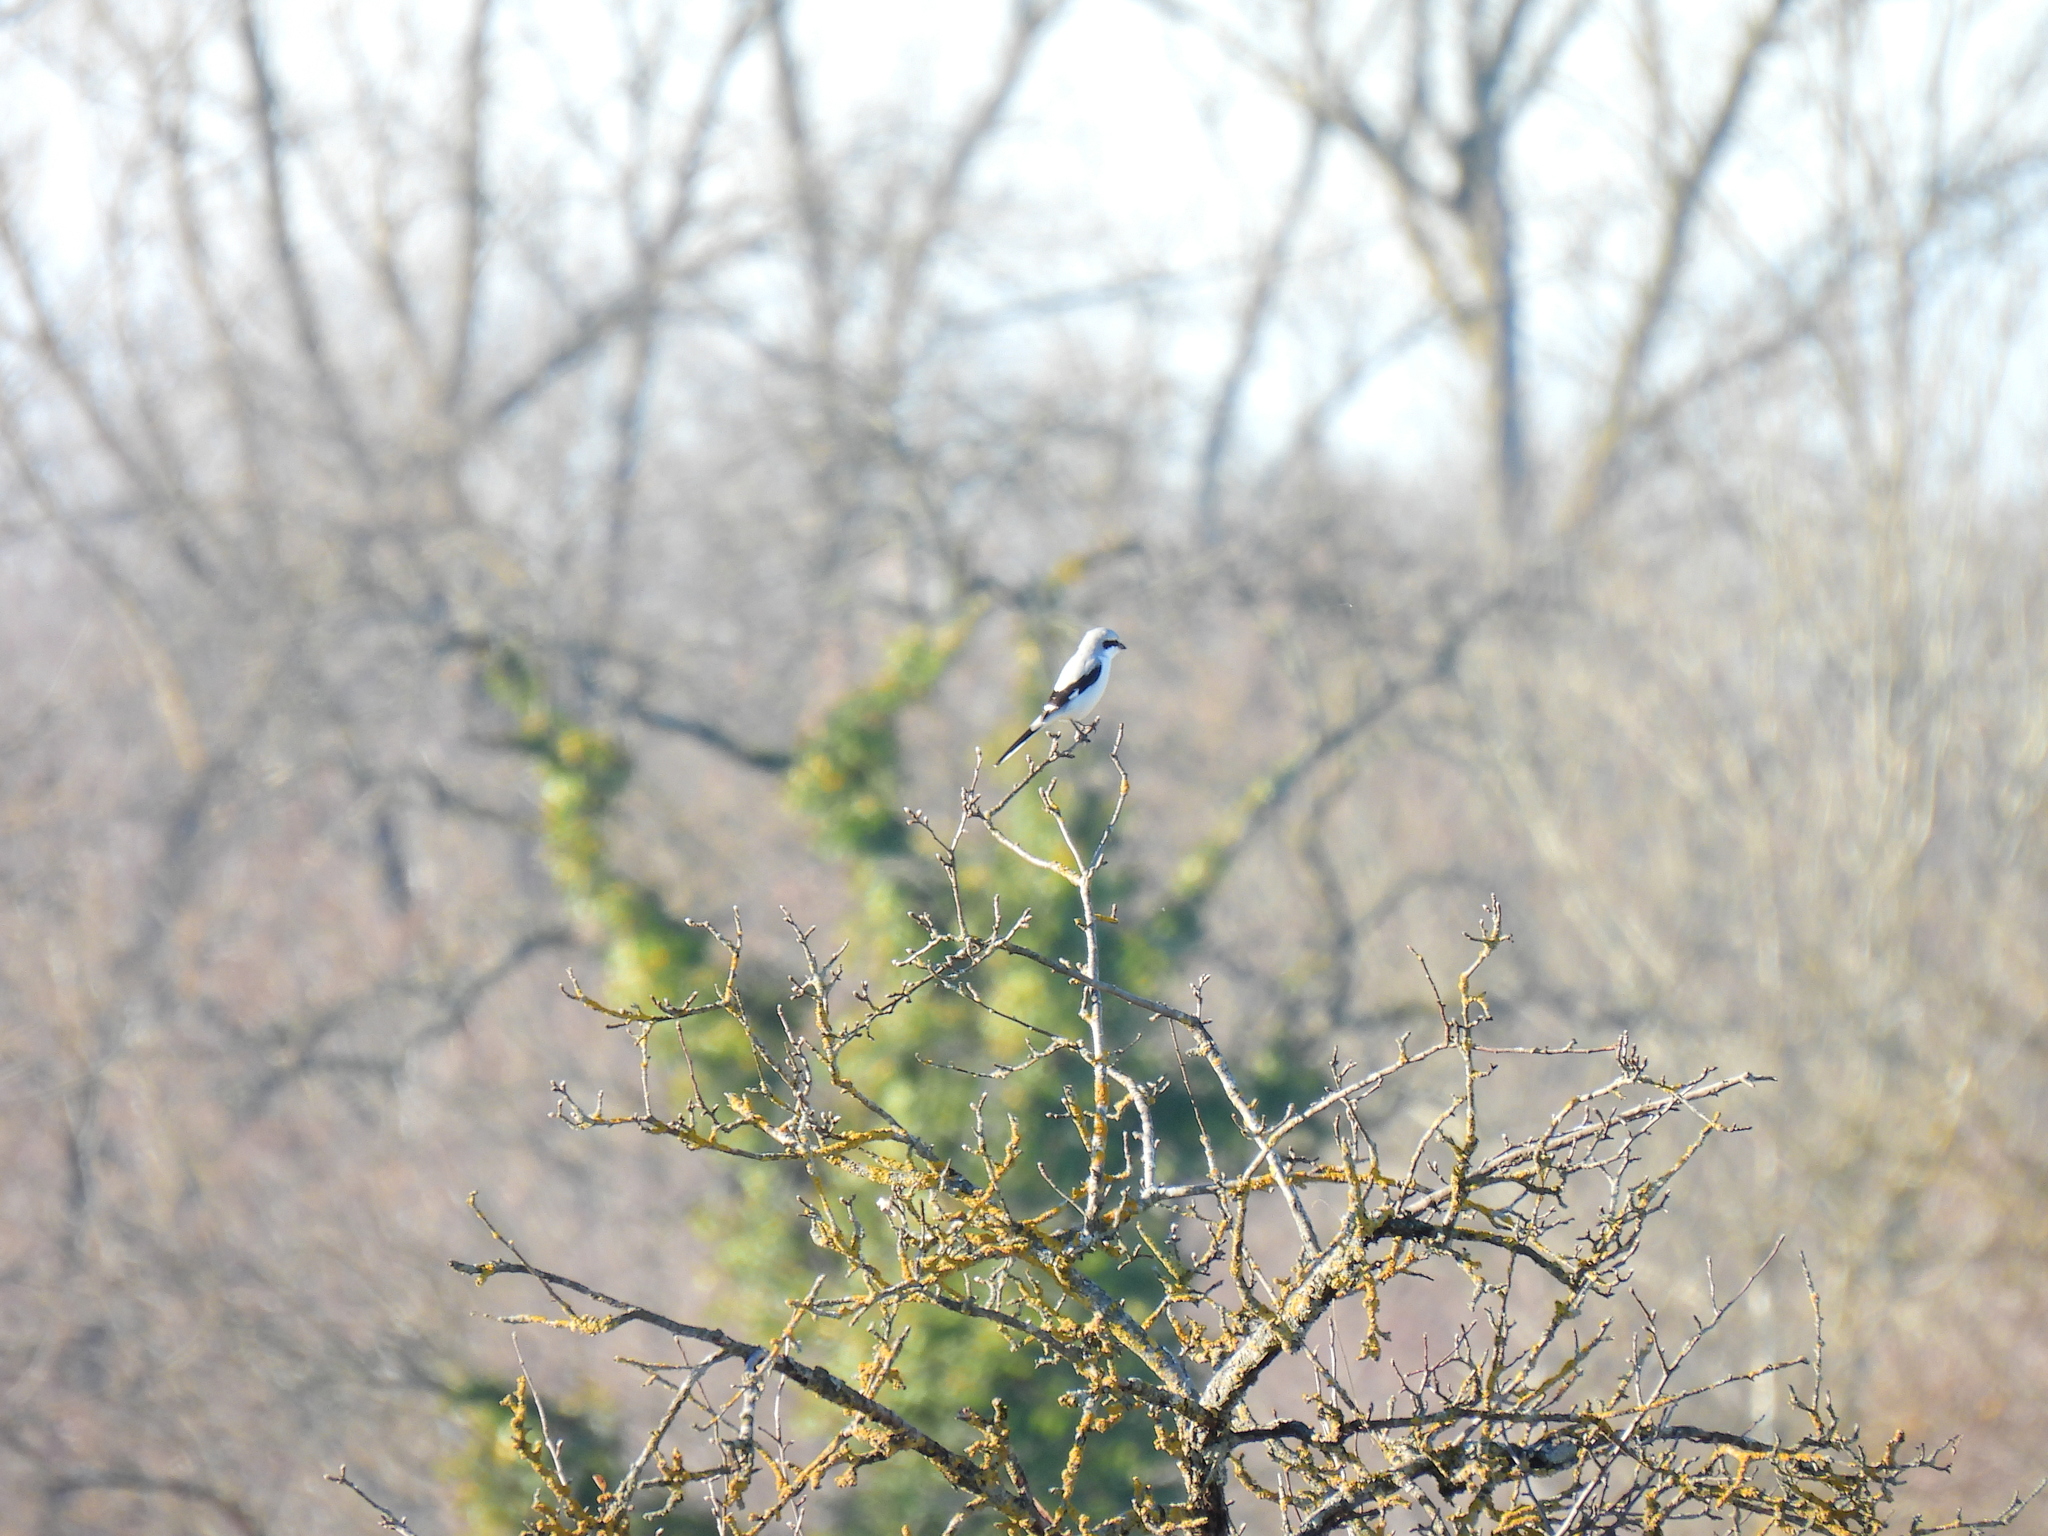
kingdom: Animalia
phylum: Chordata
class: Aves
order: Passeriformes
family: Laniidae
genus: Lanius
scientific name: Lanius excubitor
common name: Great grey shrike
